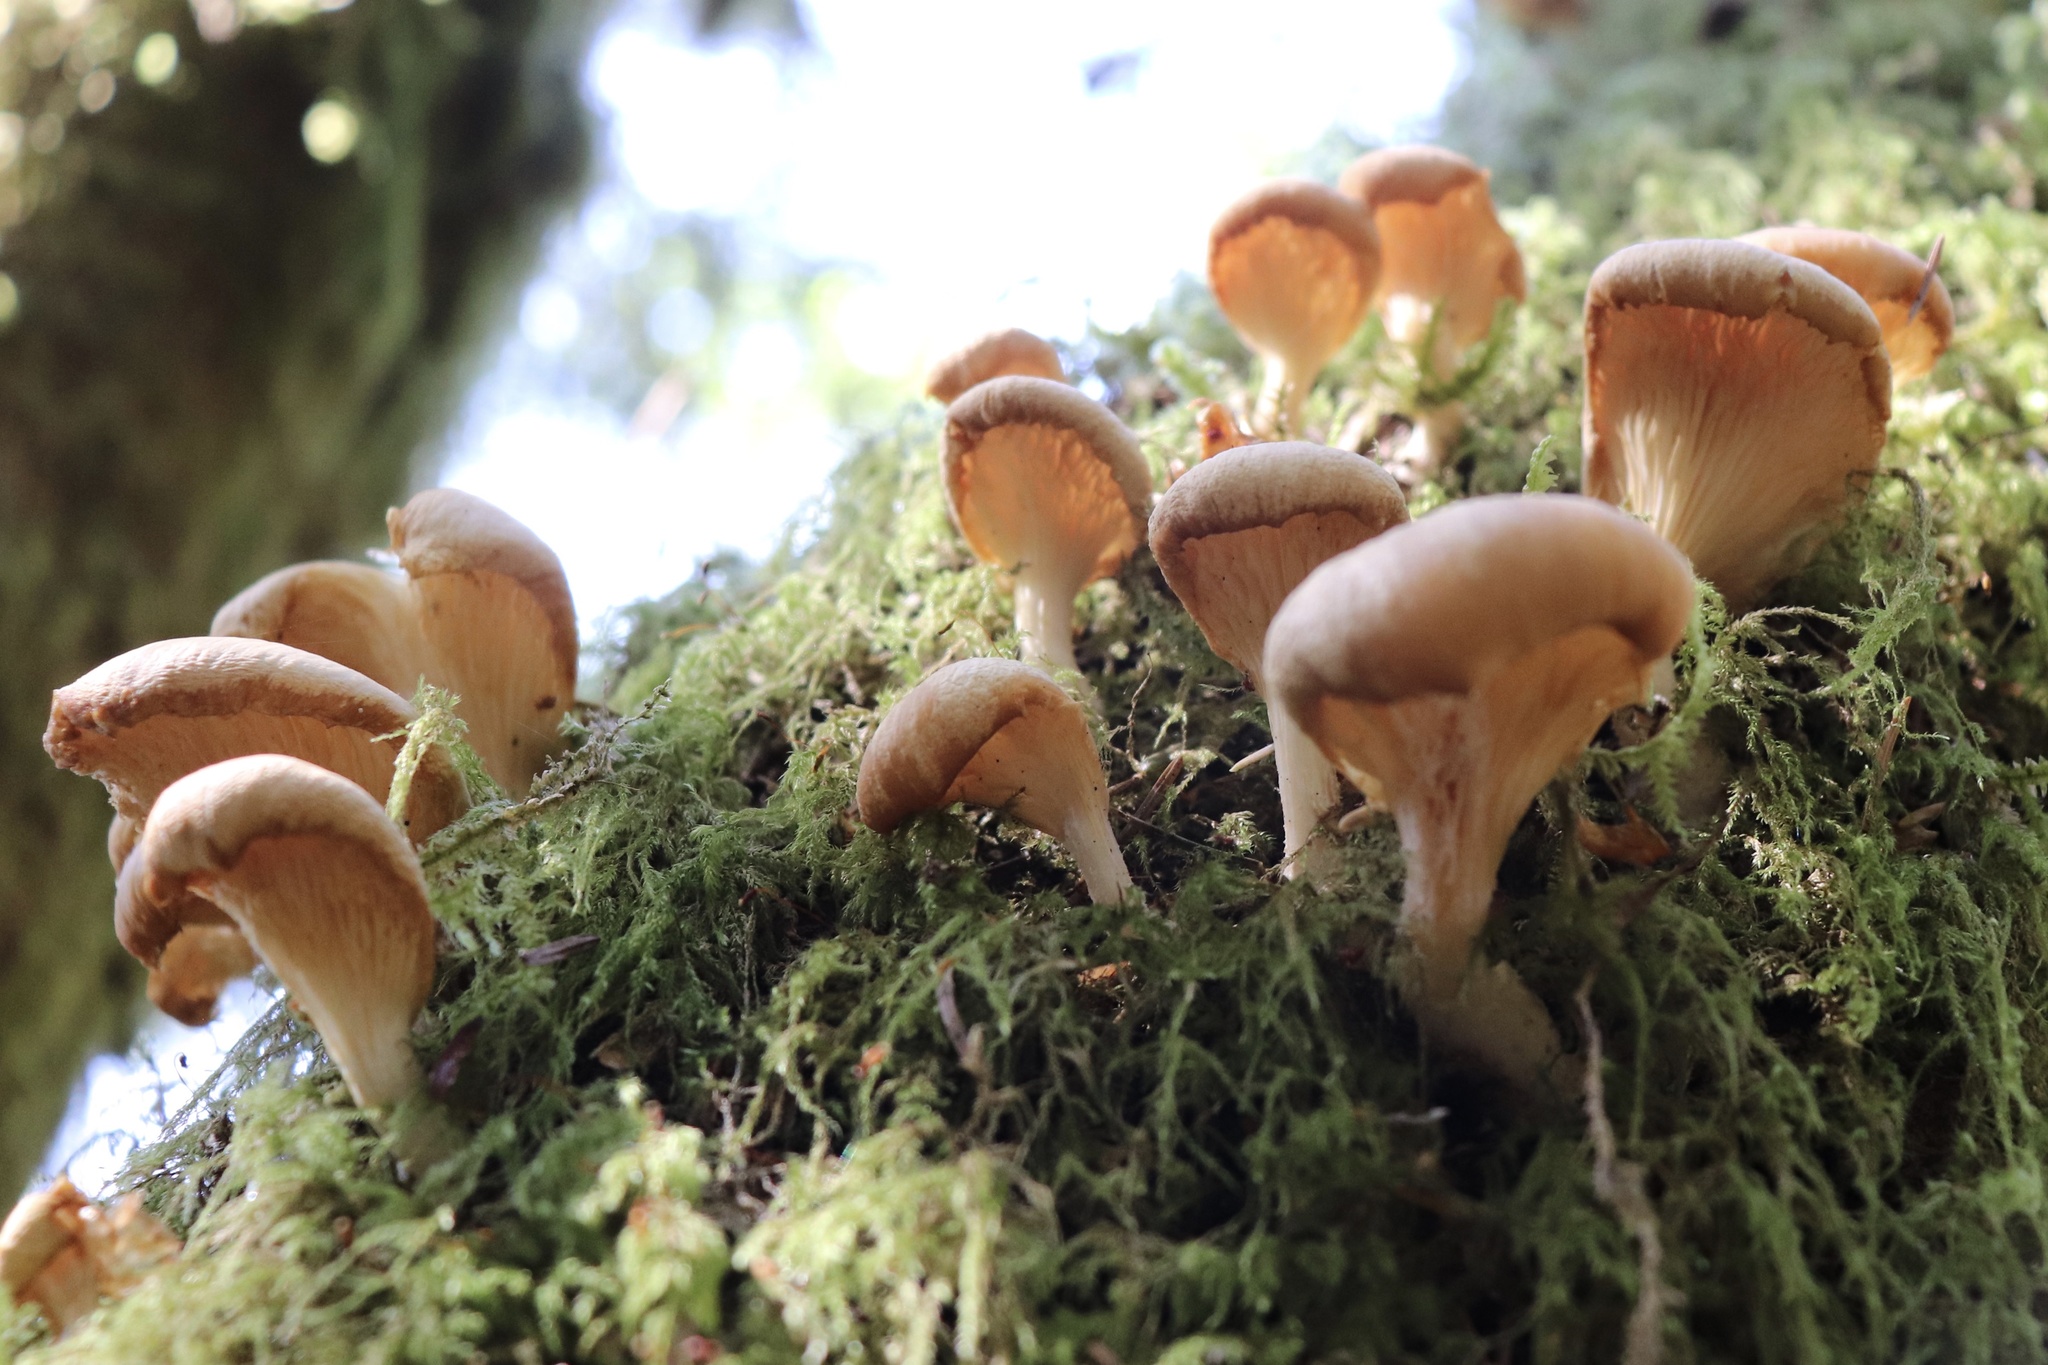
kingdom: Fungi
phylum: Basidiomycota
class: Agaricomycetes
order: Agaricales
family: Pleurotaceae
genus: Pleurotus
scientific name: Pleurotus pulmonarius
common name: Pale oyster
